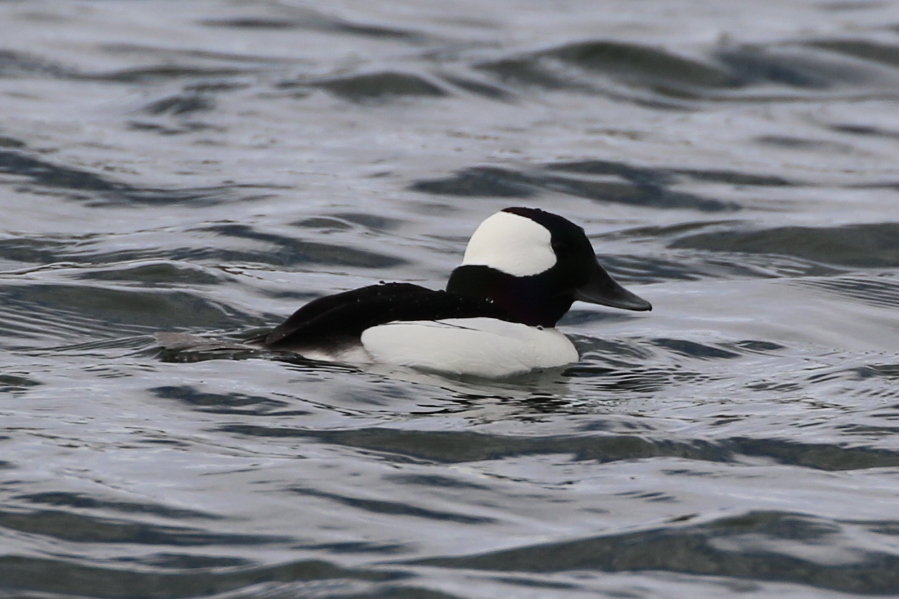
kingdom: Animalia
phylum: Chordata
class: Aves
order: Anseriformes
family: Anatidae
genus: Bucephala
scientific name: Bucephala albeola
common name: Bufflehead
